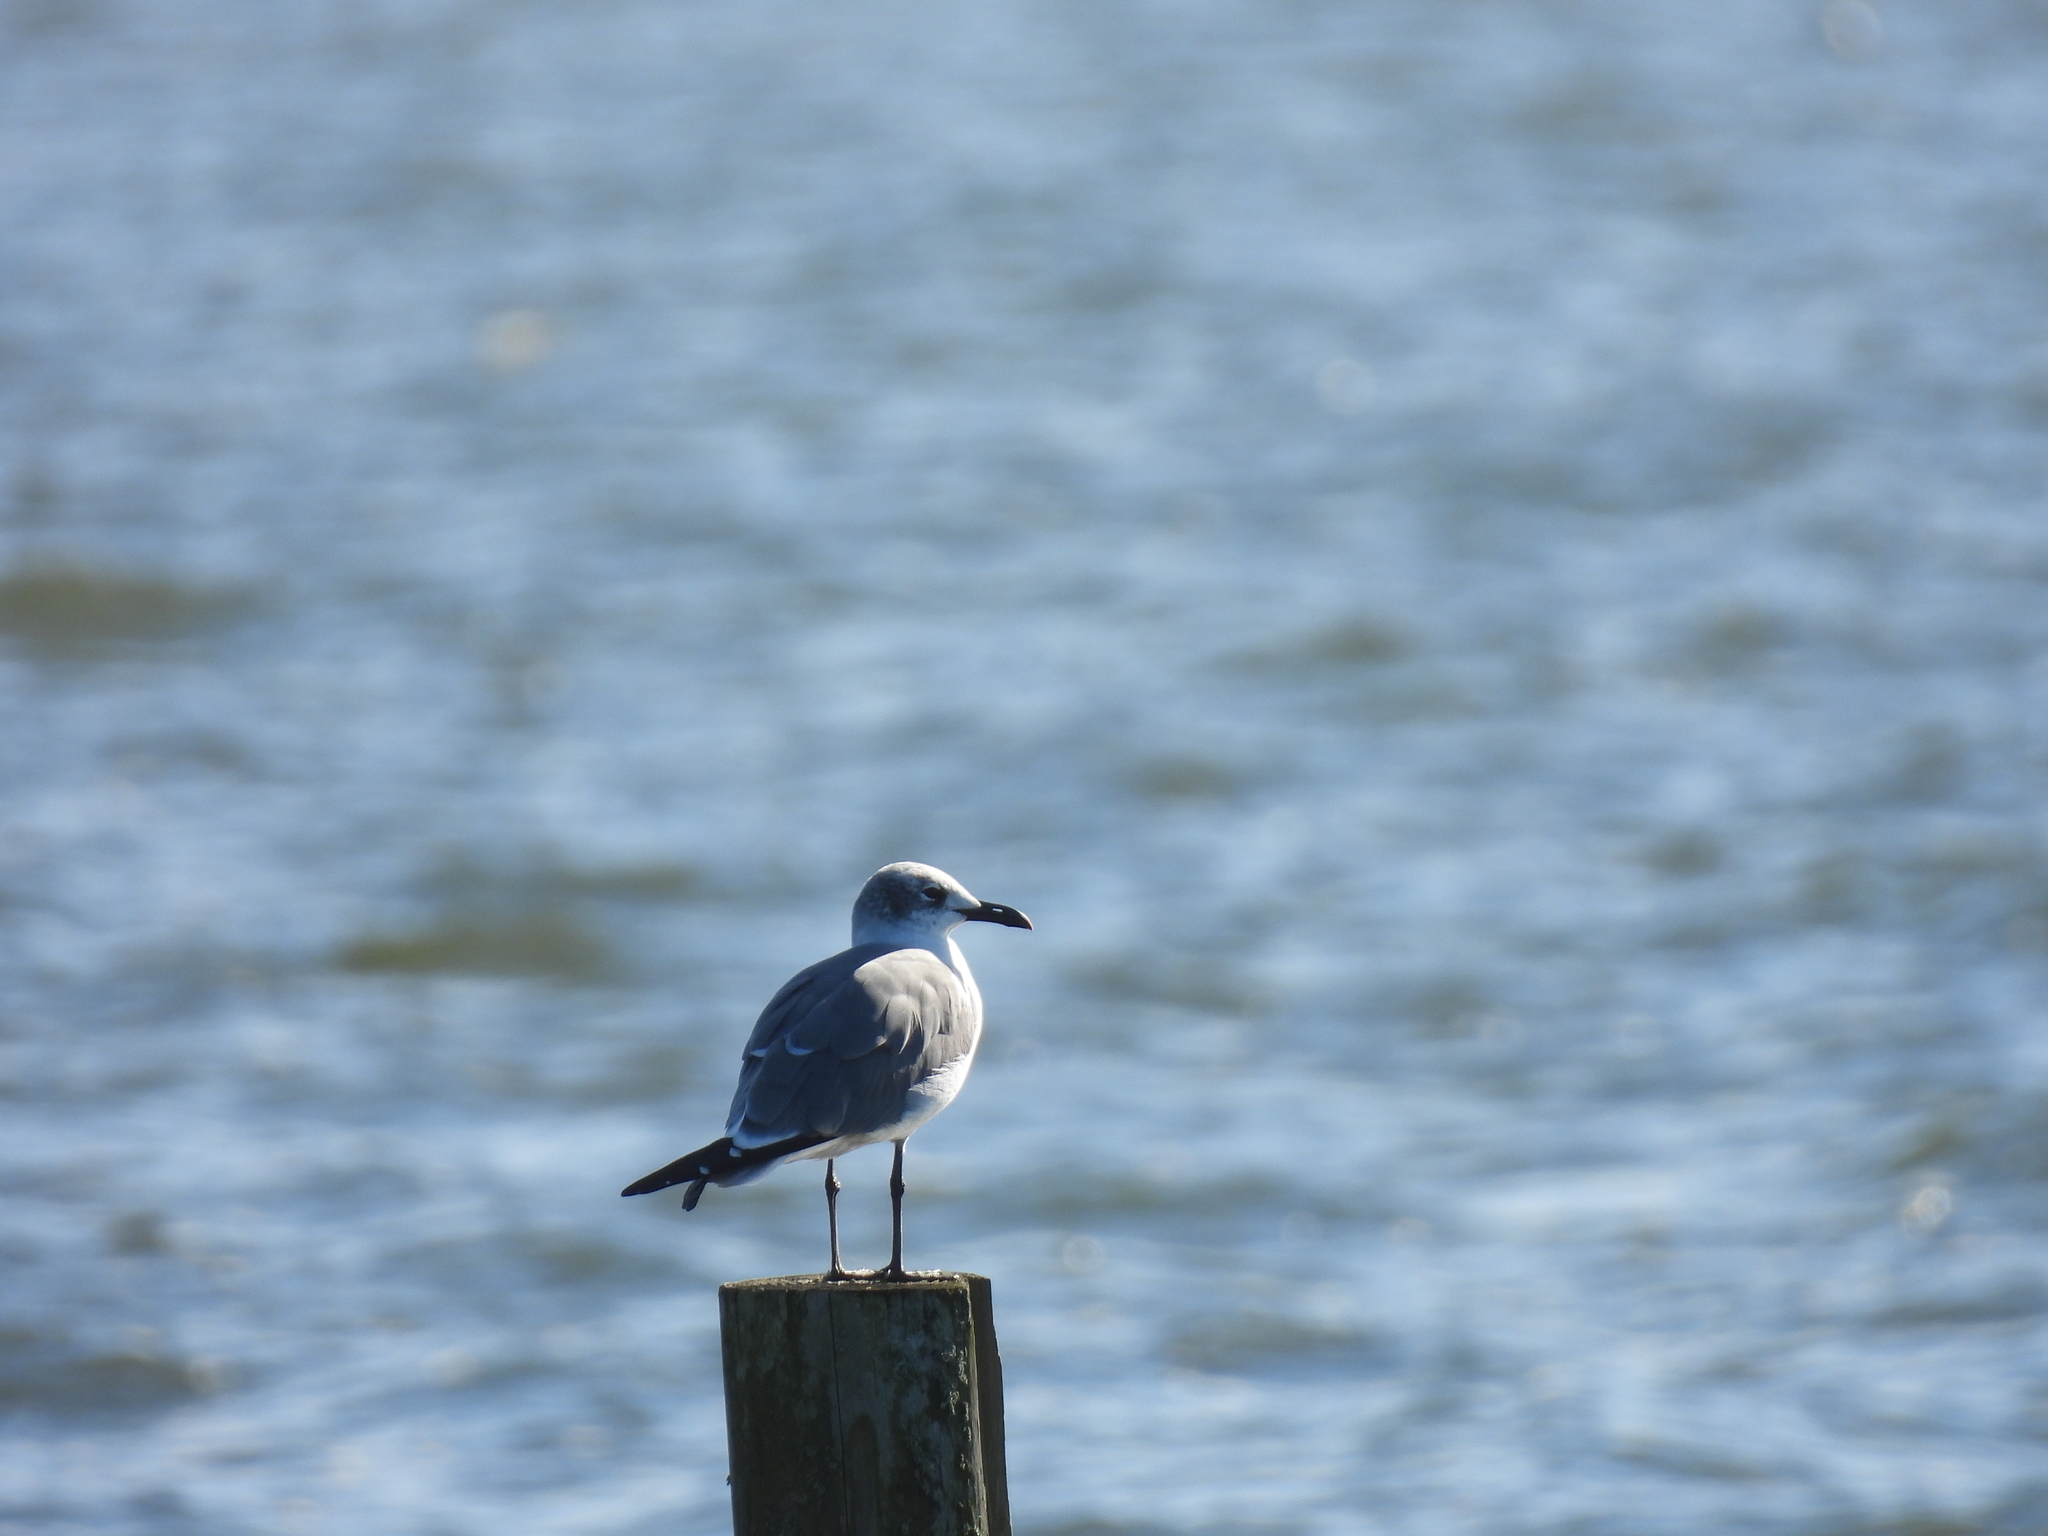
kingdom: Animalia
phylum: Chordata
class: Aves
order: Charadriiformes
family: Laridae
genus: Leucophaeus
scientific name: Leucophaeus atricilla
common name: Laughing gull
